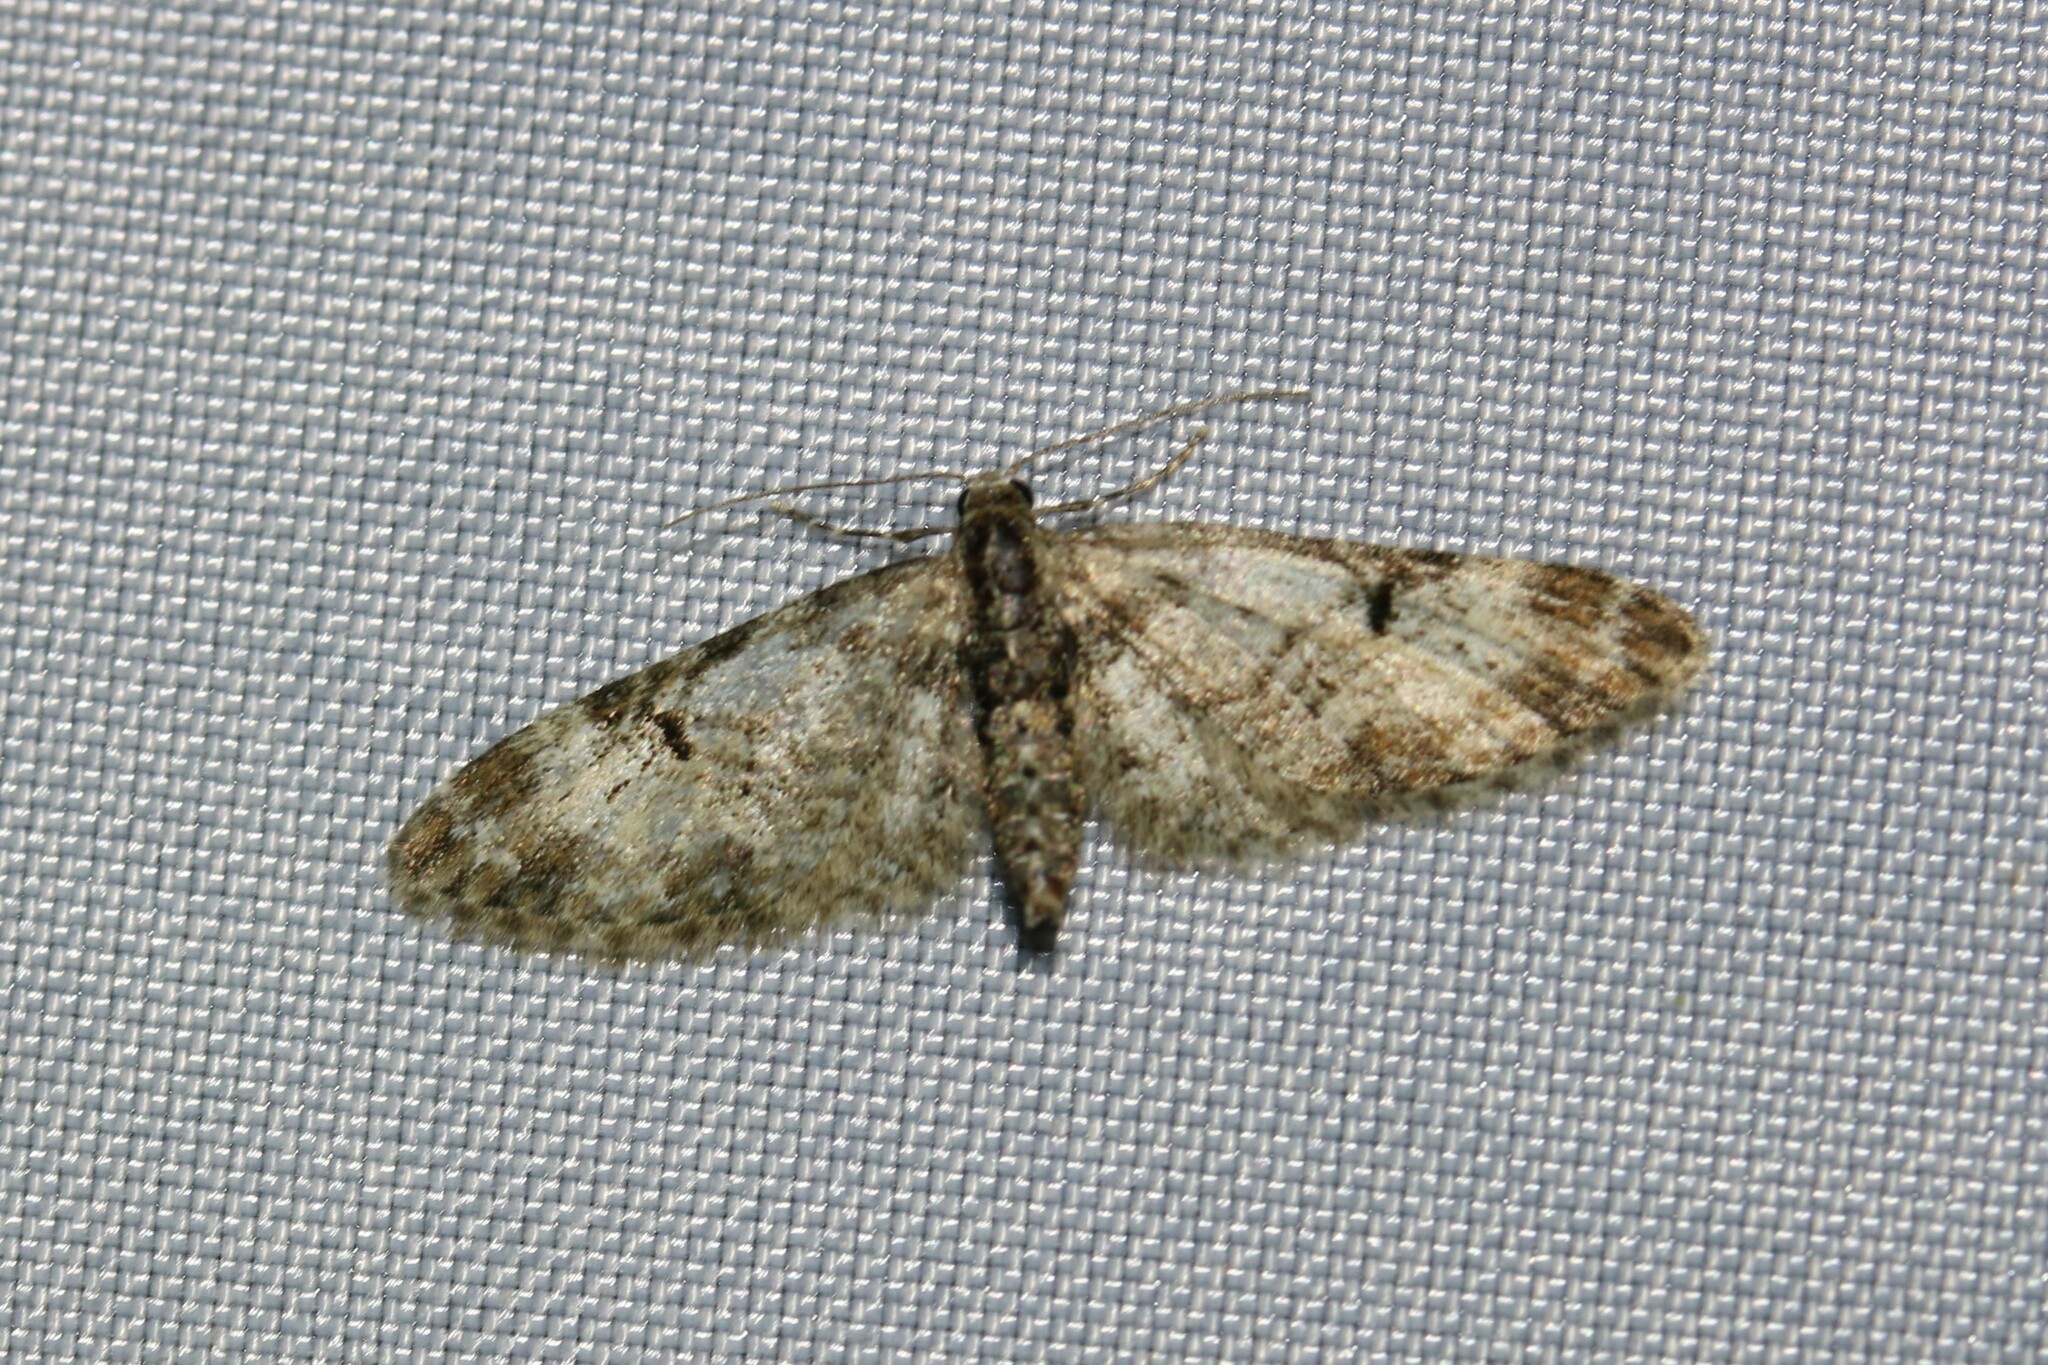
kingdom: Animalia
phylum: Arthropoda
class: Insecta
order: Lepidoptera
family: Geometridae
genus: Eupithecia
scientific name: Eupithecia irriguata
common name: Marbled pug
